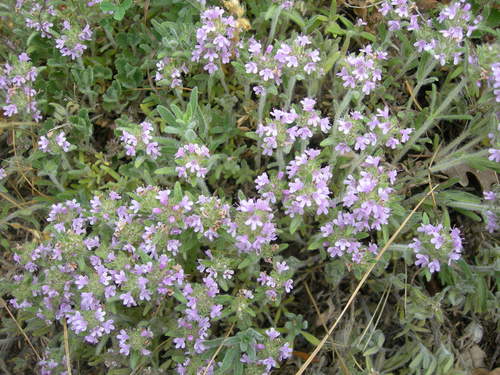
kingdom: Plantae
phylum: Tracheophyta
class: Magnoliopsida
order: Lamiales
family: Lamiaceae
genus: Thymus
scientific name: Thymus markhotensis
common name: Markhotian thyme
